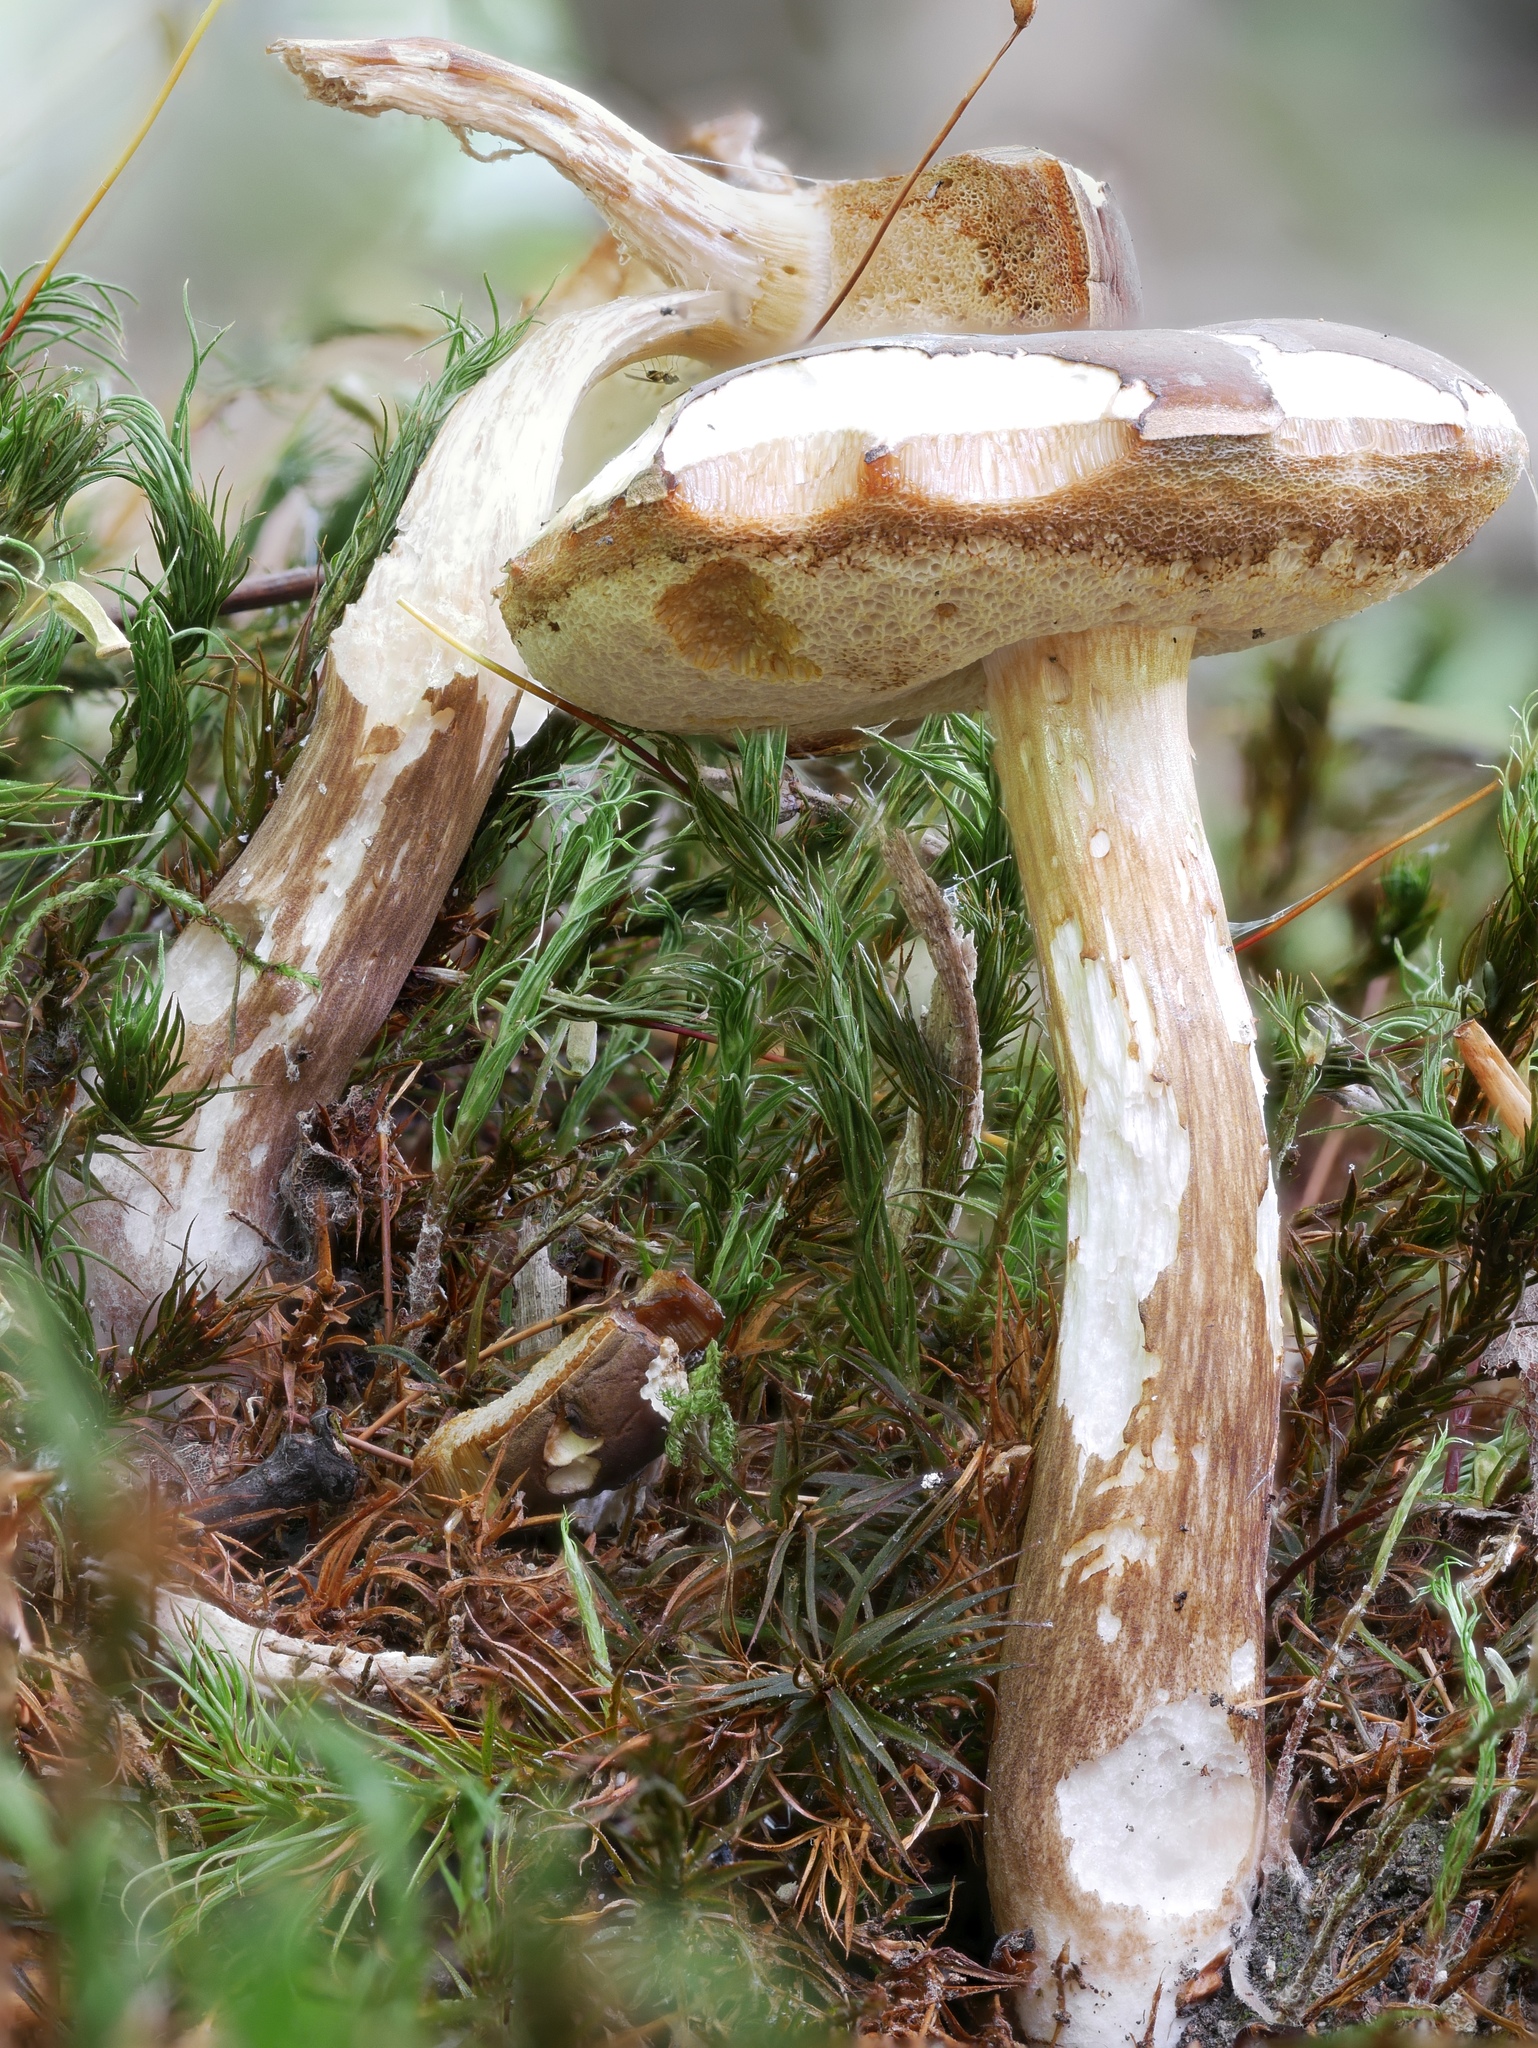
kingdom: Fungi
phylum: Basidiomycota
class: Agaricomycetes
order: Boletales
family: Boletaceae
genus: Xanthoconium
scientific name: Xanthoconium affine
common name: Spotted bolete
